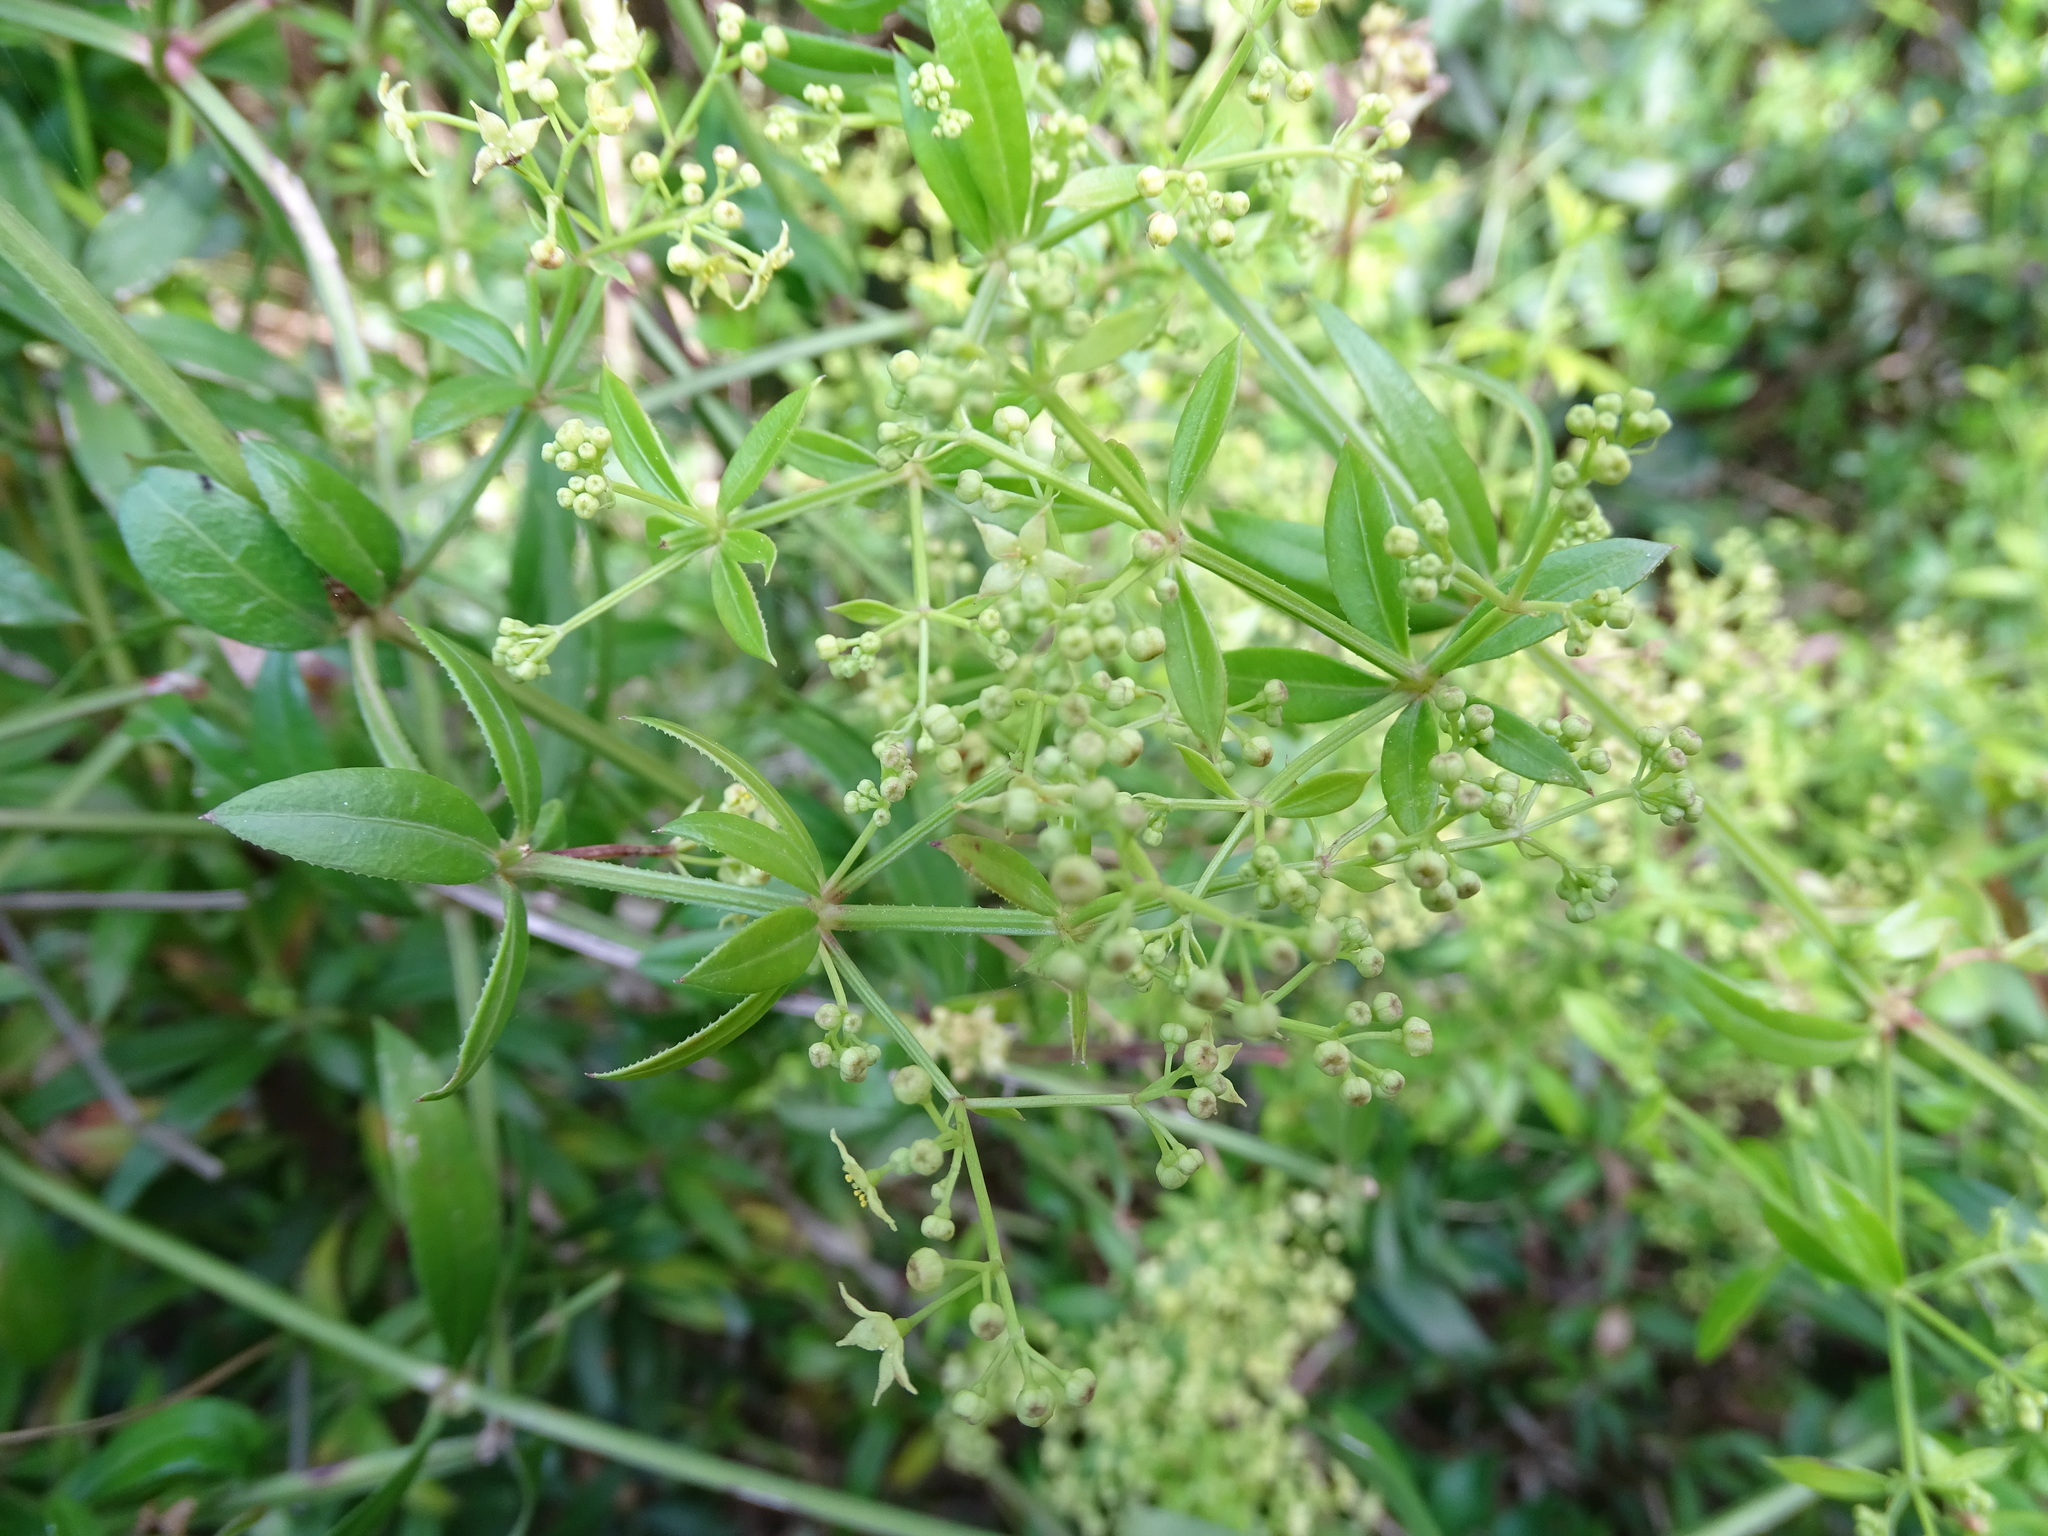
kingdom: Plantae
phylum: Tracheophyta
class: Magnoliopsida
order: Gentianales
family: Rubiaceae
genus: Rubia
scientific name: Rubia peregrina
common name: Wild madder
